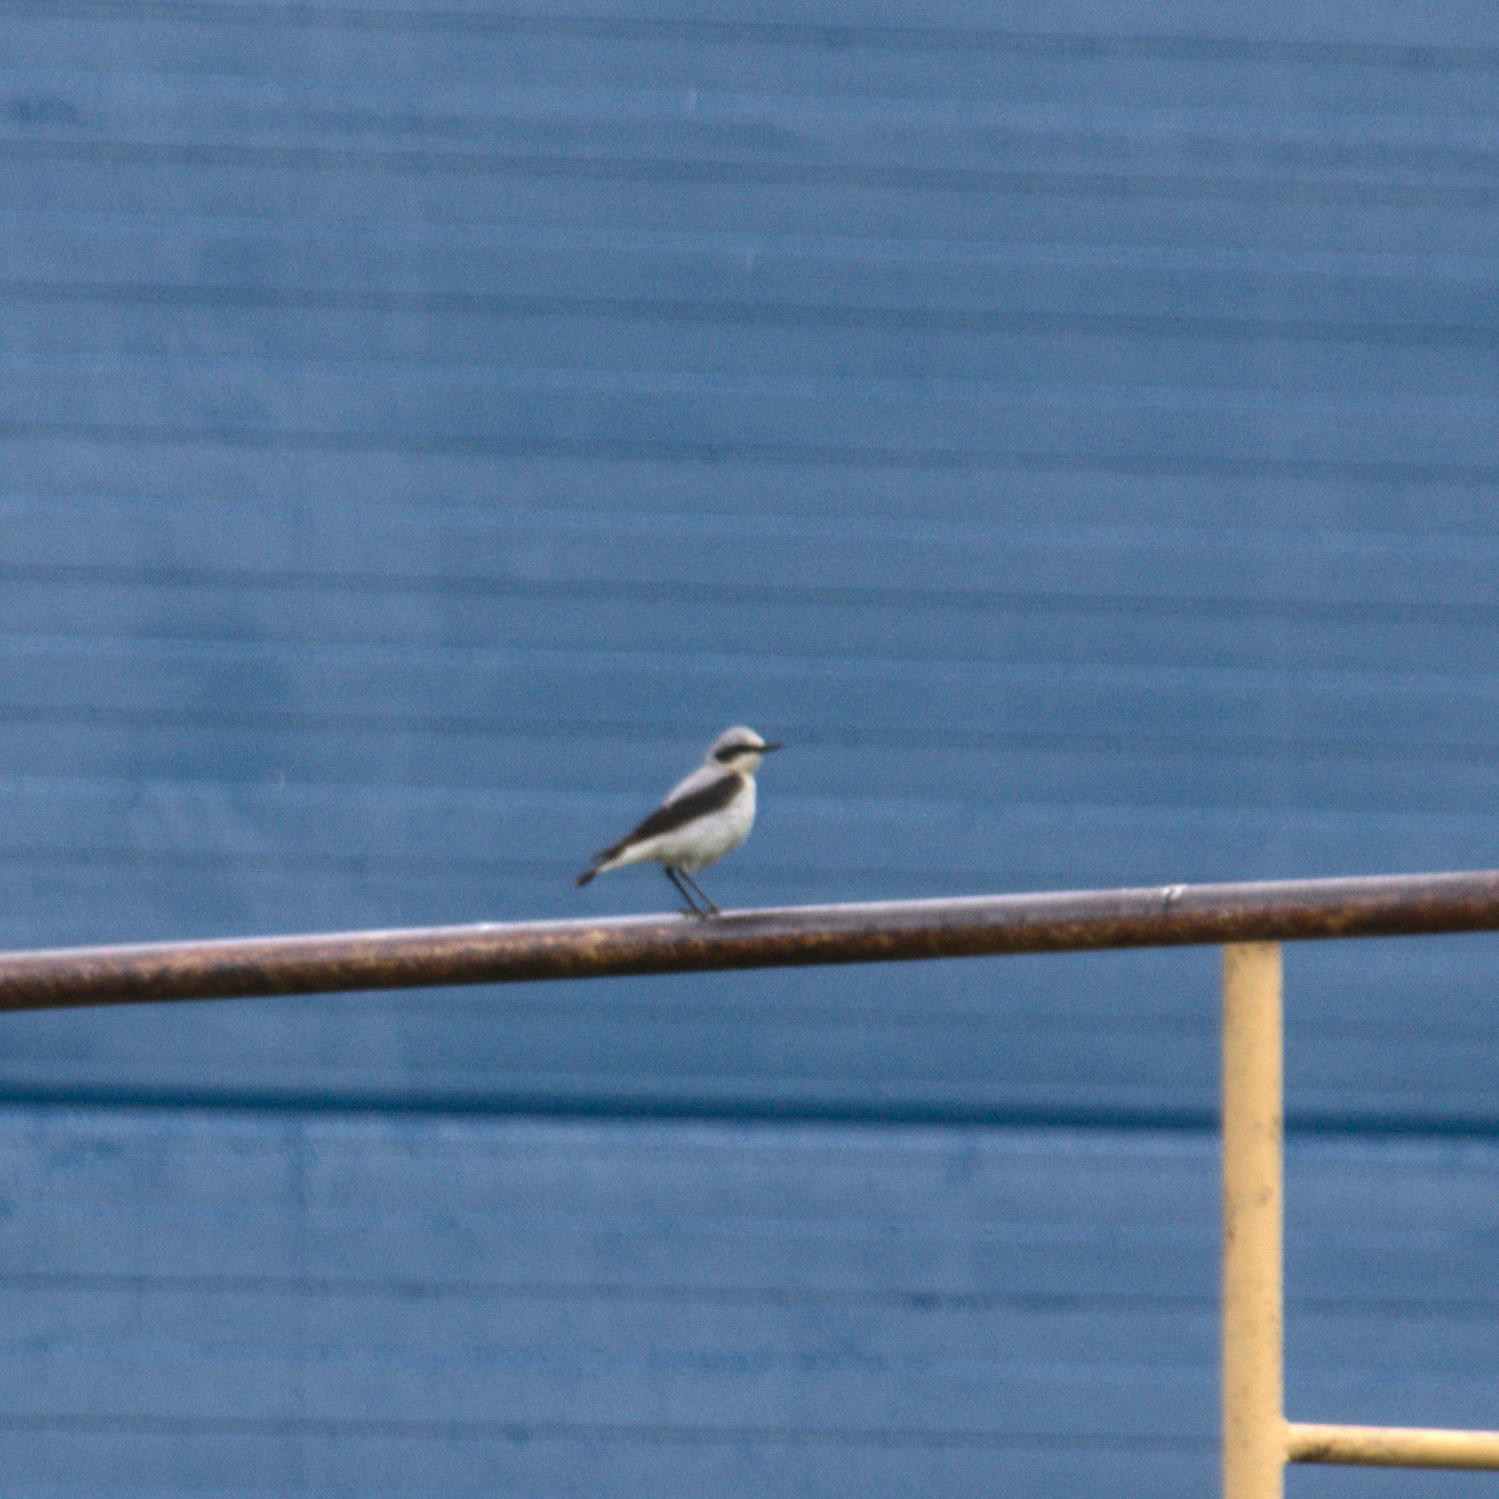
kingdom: Animalia
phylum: Chordata
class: Aves
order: Passeriformes
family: Muscicapidae
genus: Oenanthe
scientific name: Oenanthe oenanthe
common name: Northern wheatear
